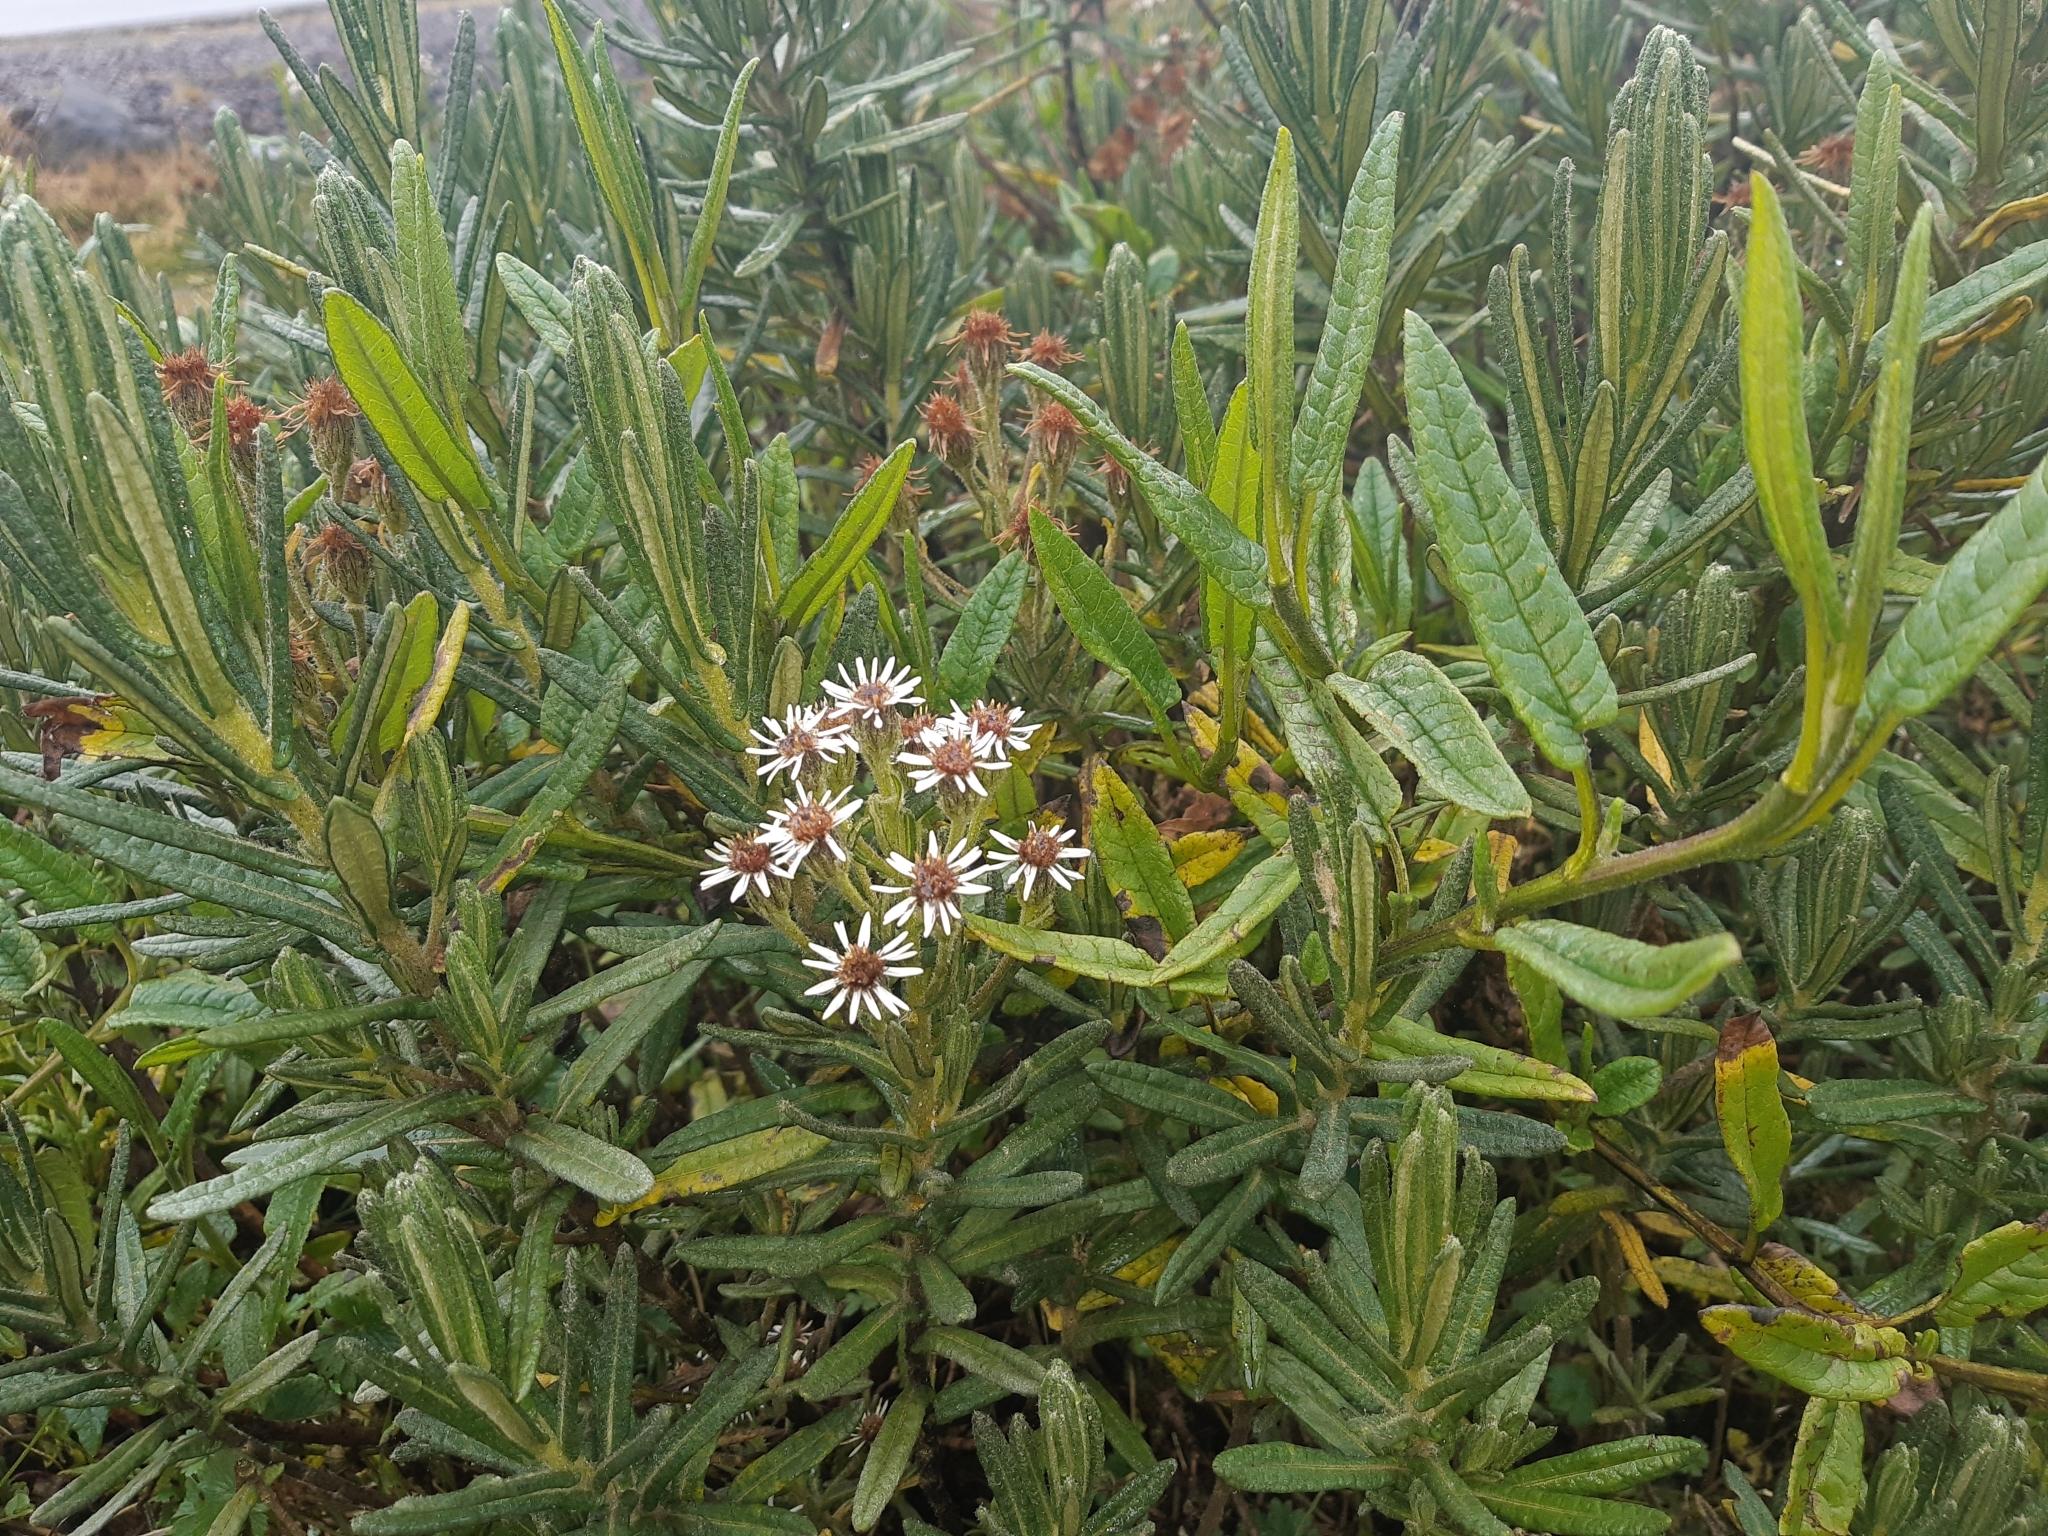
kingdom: Plantae
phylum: Tracheophyta
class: Magnoliopsida
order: Asterales
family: Asteraceae
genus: Linochilus
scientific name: Linochilus rupestris
